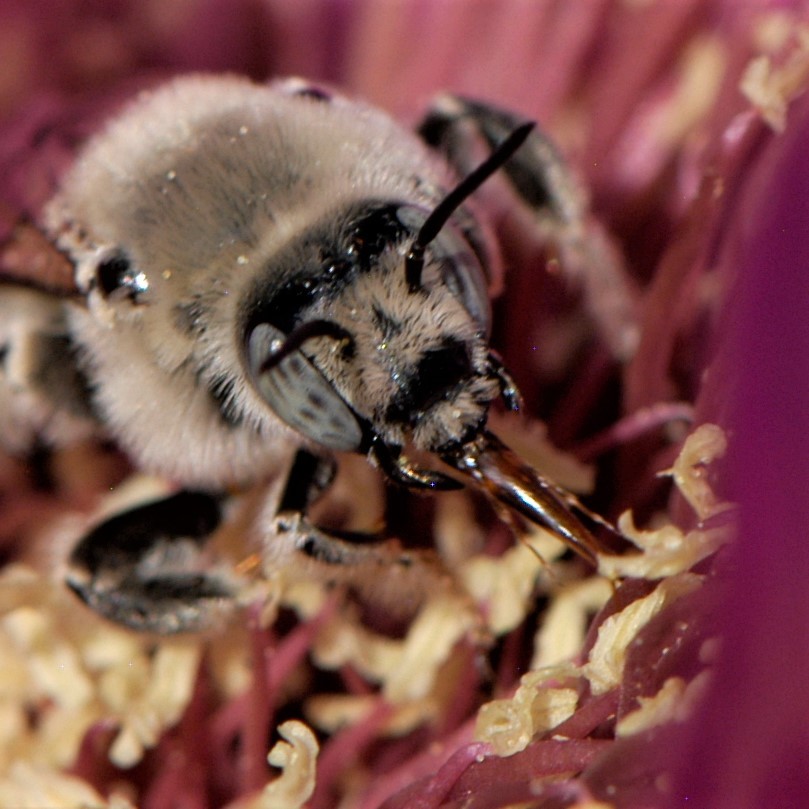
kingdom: Animalia
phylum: Arthropoda
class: Insecta
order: Hymenoptera
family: Apidae
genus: Diadasia
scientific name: Diadasia
